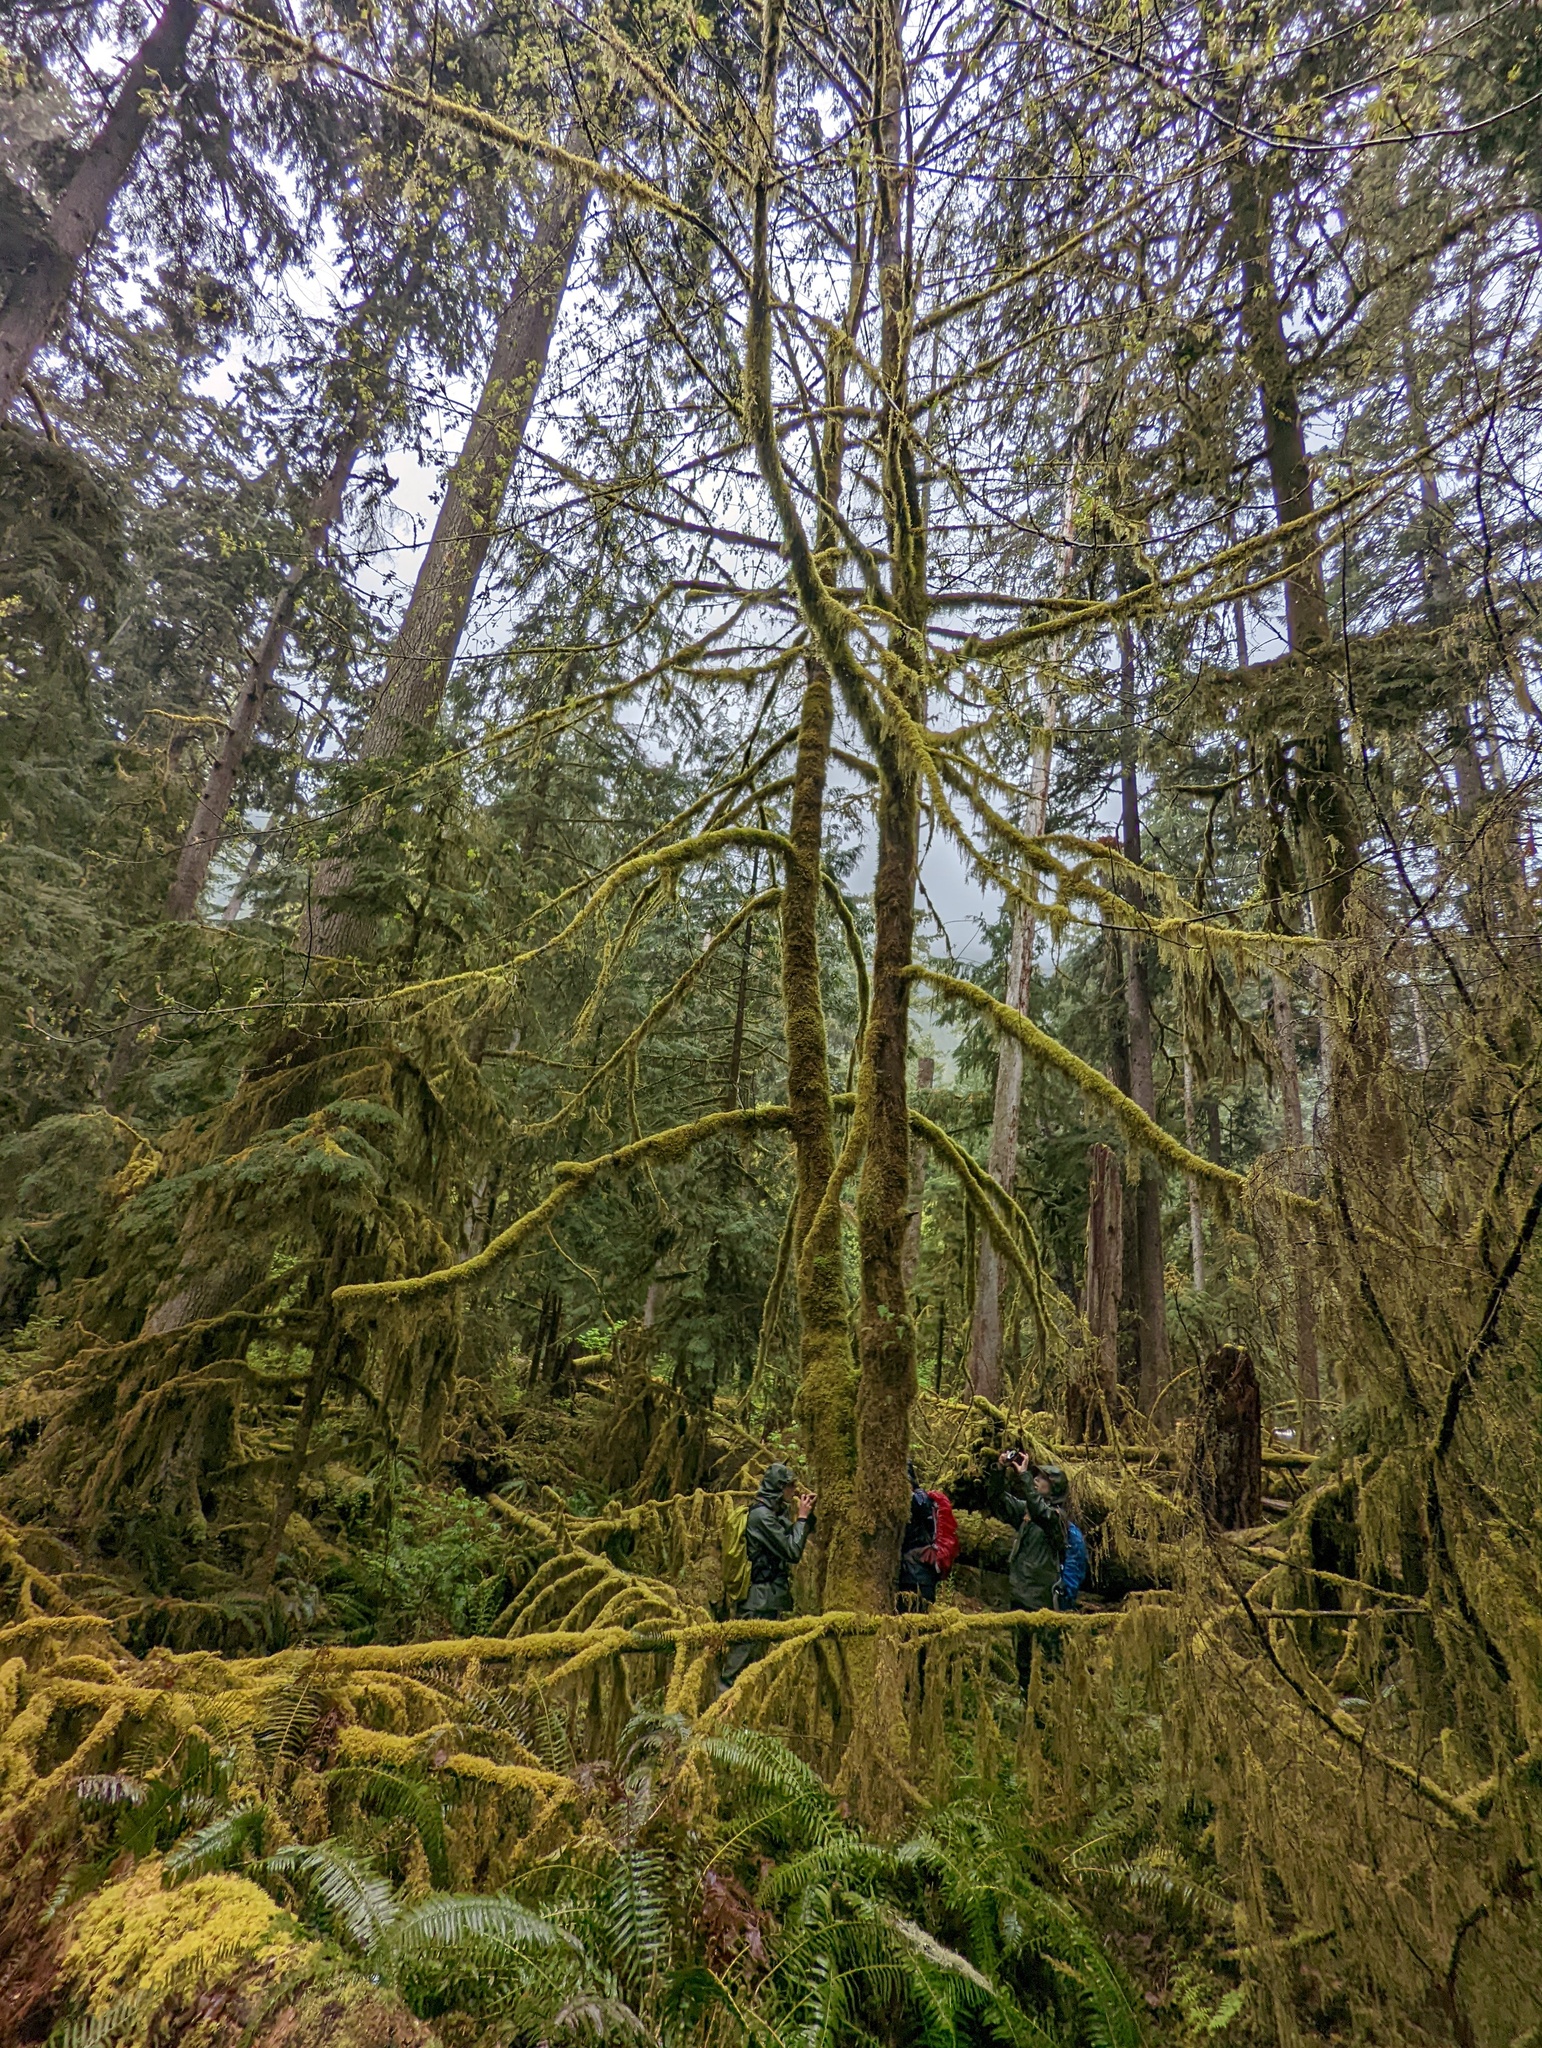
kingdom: Plantae
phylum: Tracheophyta
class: Magnoliopsida
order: Sapindales
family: Sapindaceae
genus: Acer
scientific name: Acer macrophyllum
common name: Oregon maple
